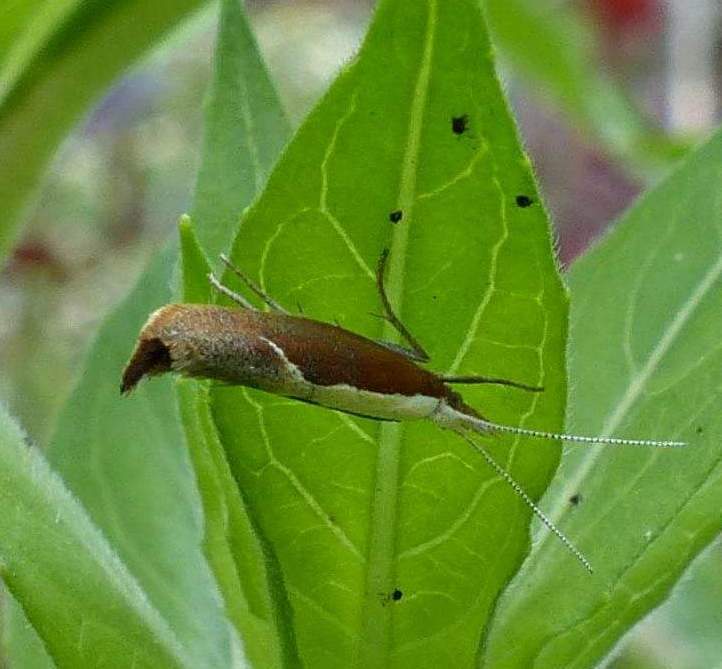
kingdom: Animalia
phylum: Arthropoda
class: Insecta
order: Lepidoptera
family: Ypsolophidae
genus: Ypsolopha
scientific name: Ypsolopha dentella
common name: Honeysuckle moth
